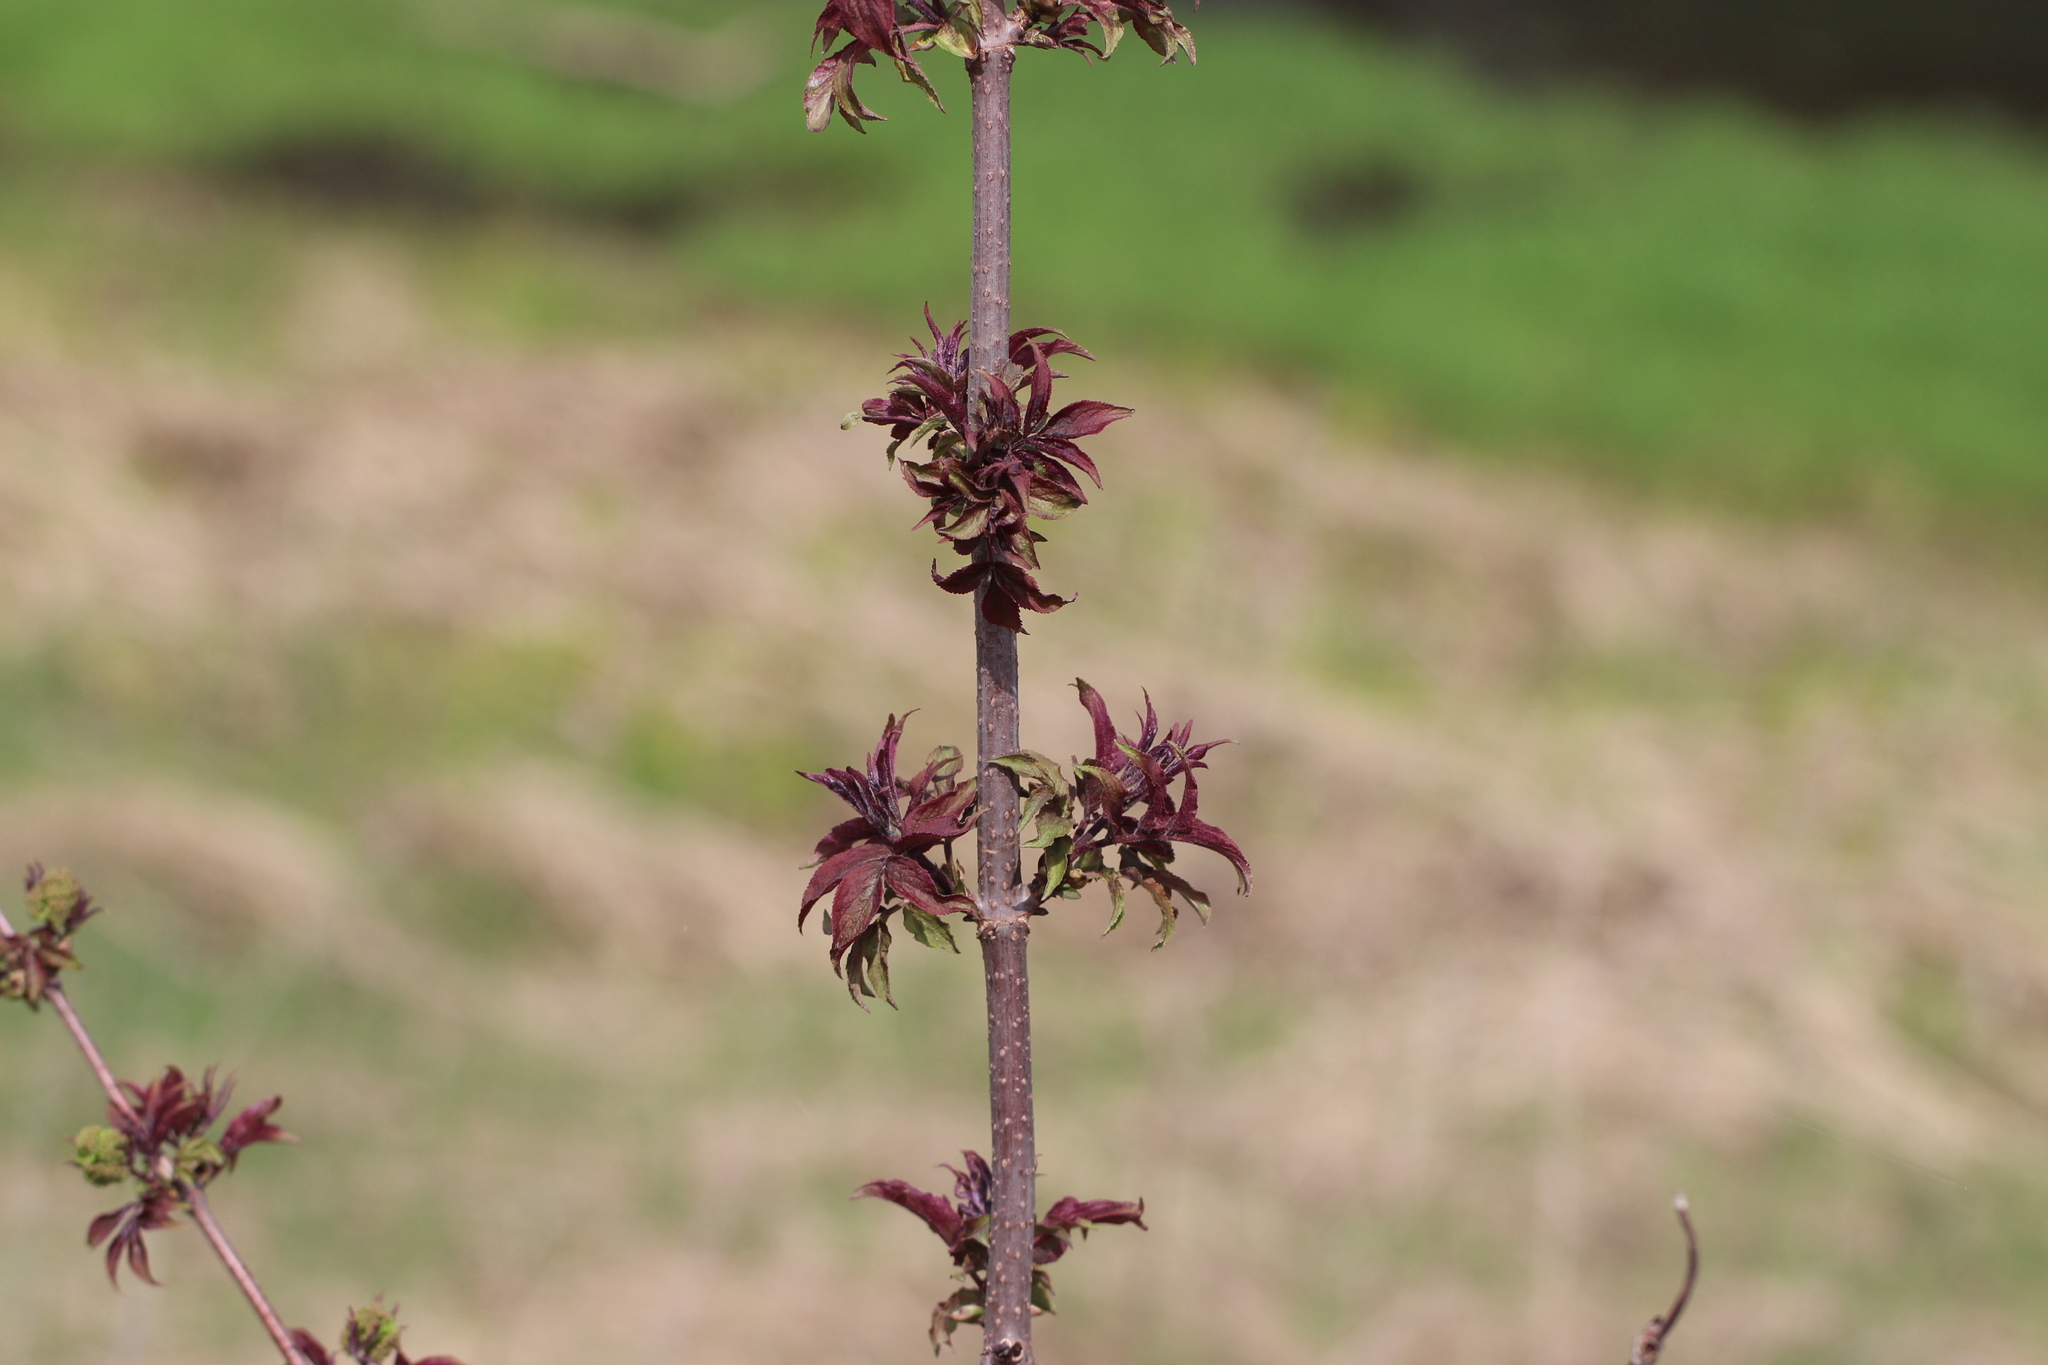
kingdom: Plantae
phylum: Tracheophyta
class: Magnoliopsida
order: Dipsacales
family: Viburnaceae
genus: Sambucus
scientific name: Sambucus racemosa
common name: Red-berried elder
